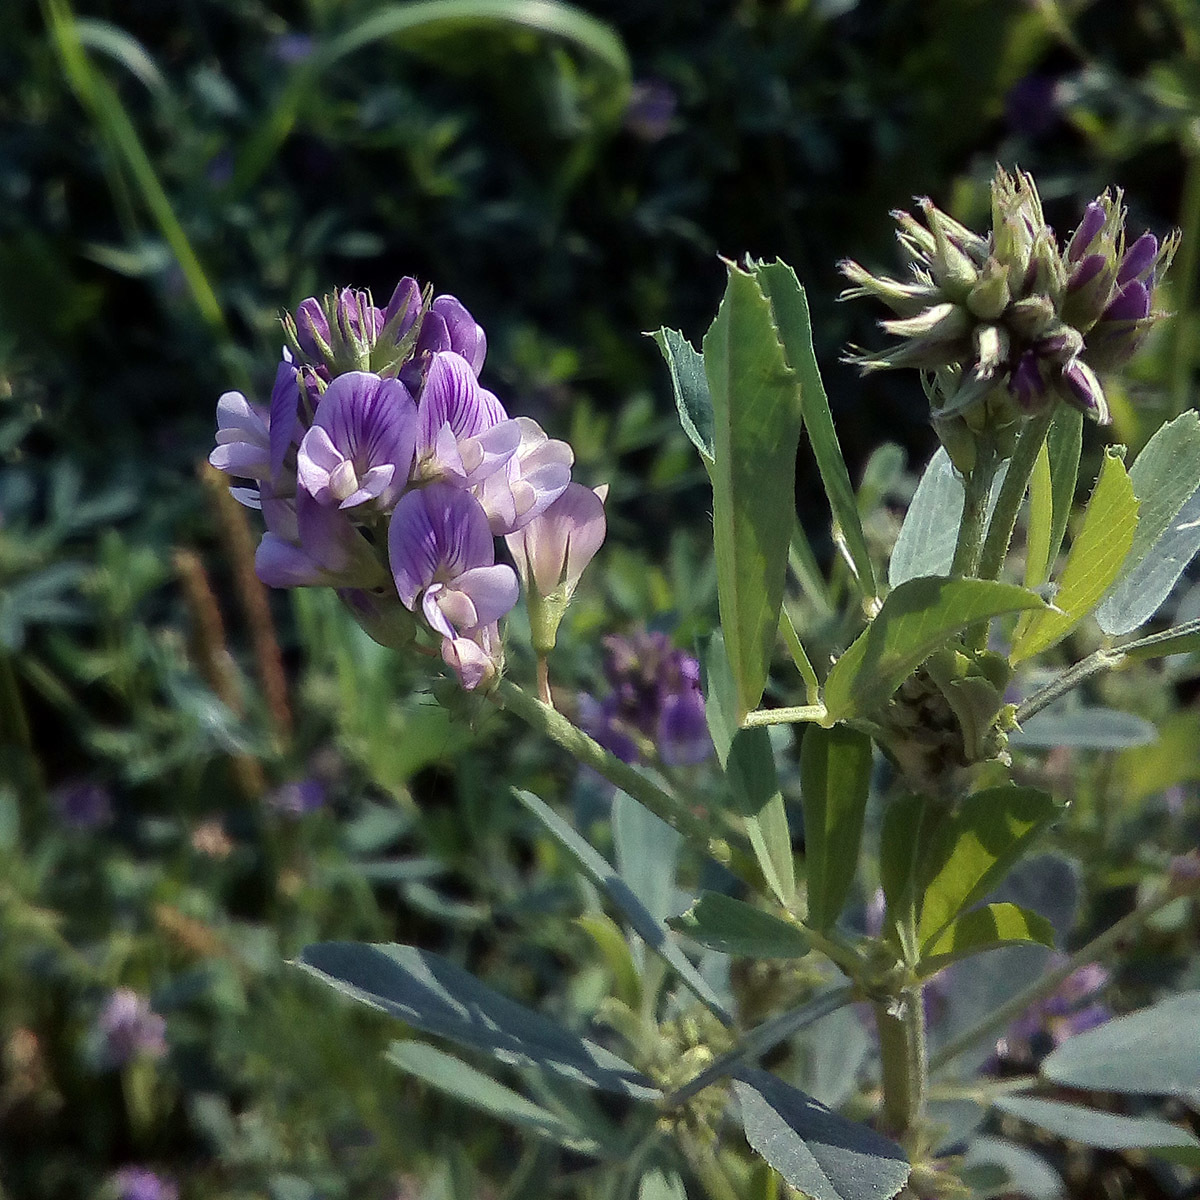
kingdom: Plantae
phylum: Tracheophyta
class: Magnoliopsida
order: Fabales
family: Fabaceae
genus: Medicago
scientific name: Medicago varia
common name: Sand lucerne
